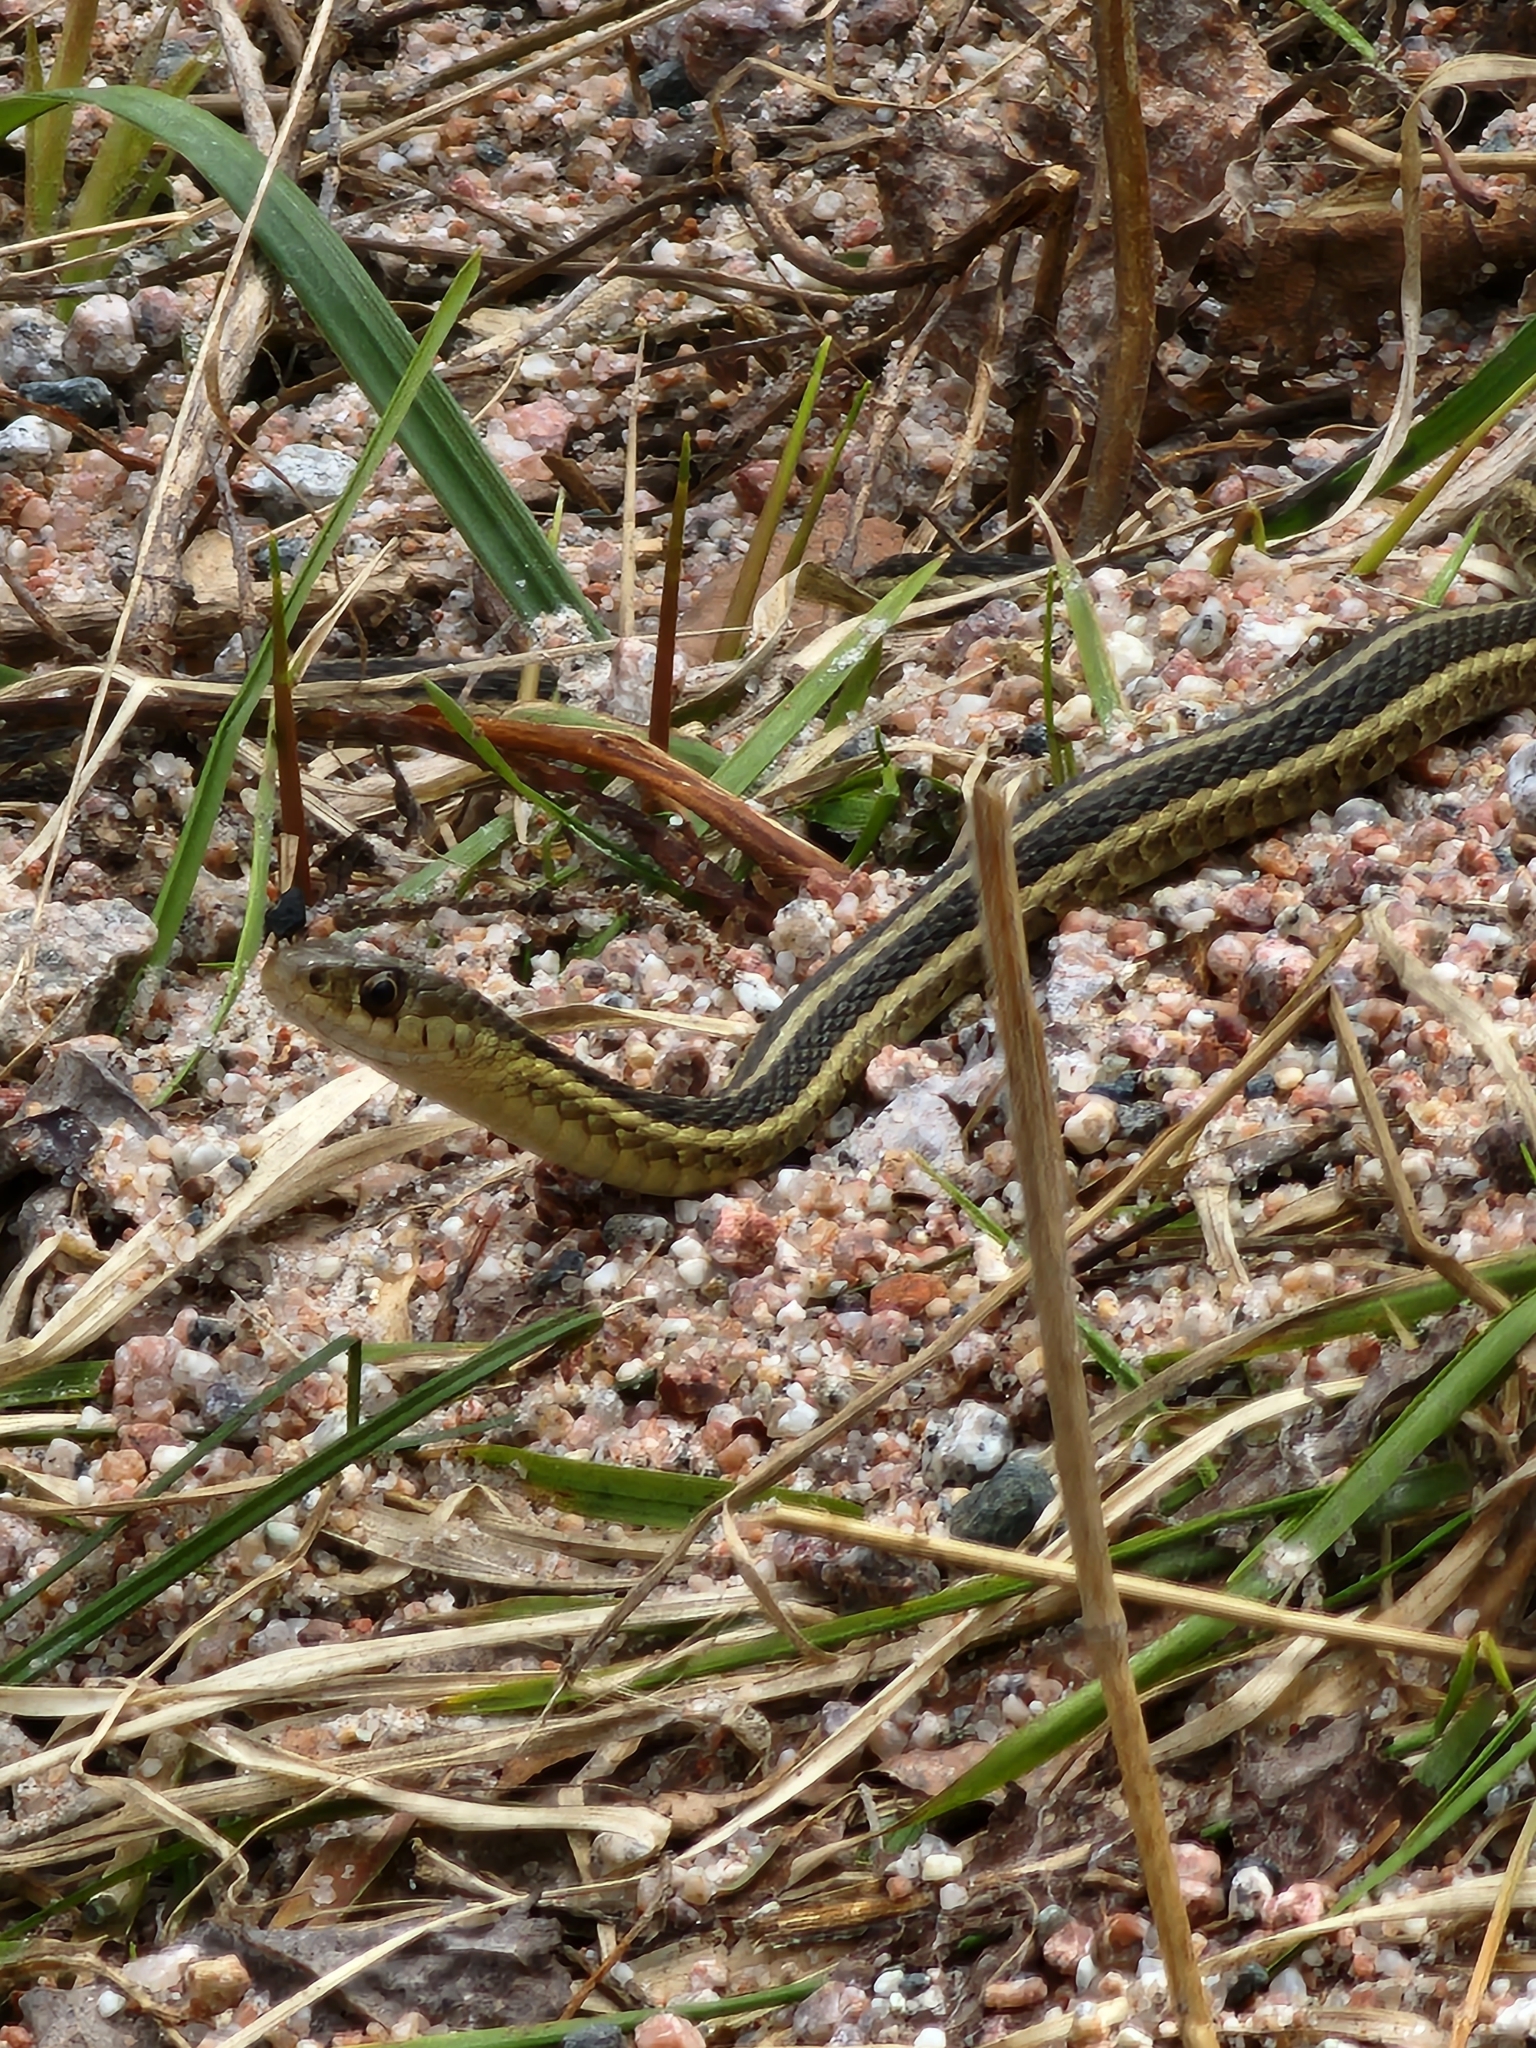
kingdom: Animalia
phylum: Chordata
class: Squamata
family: Colubridae
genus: Thamnophis
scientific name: Thamnophis sirtalis
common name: Common garter snake
